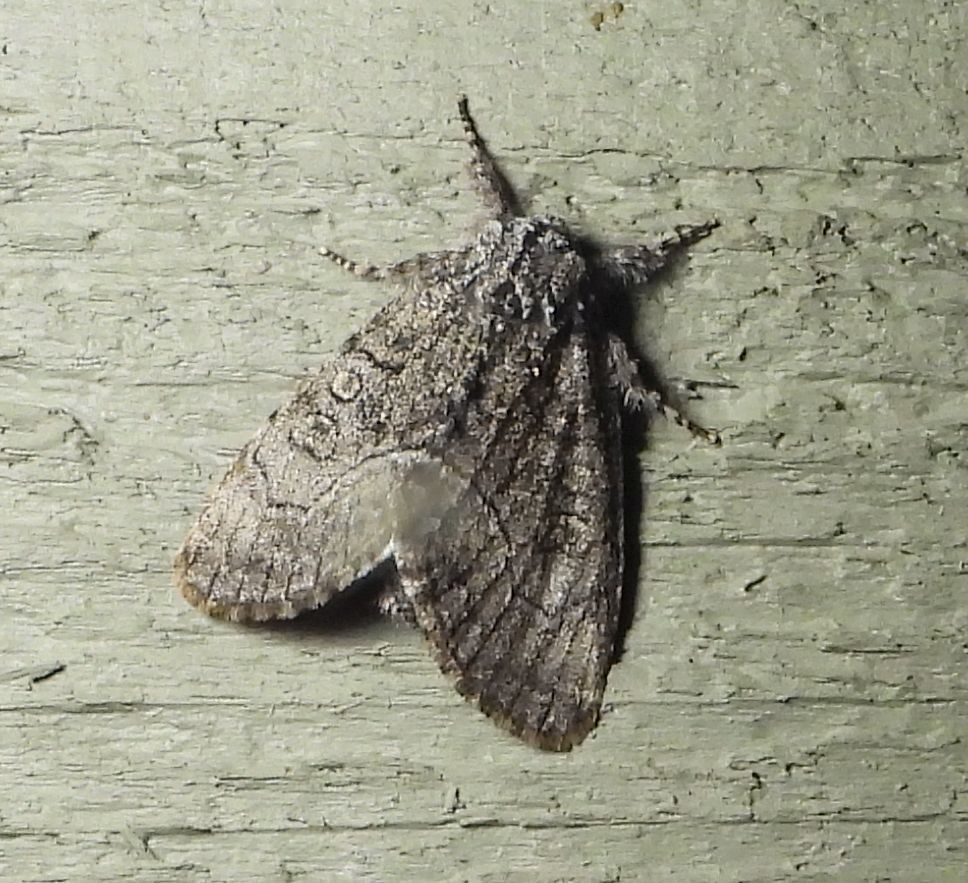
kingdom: Animalia
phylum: Arthropoda
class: Insecta
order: Lepidoptera
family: Noctuidae
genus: Raphia
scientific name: Raphia frater
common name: Brother
